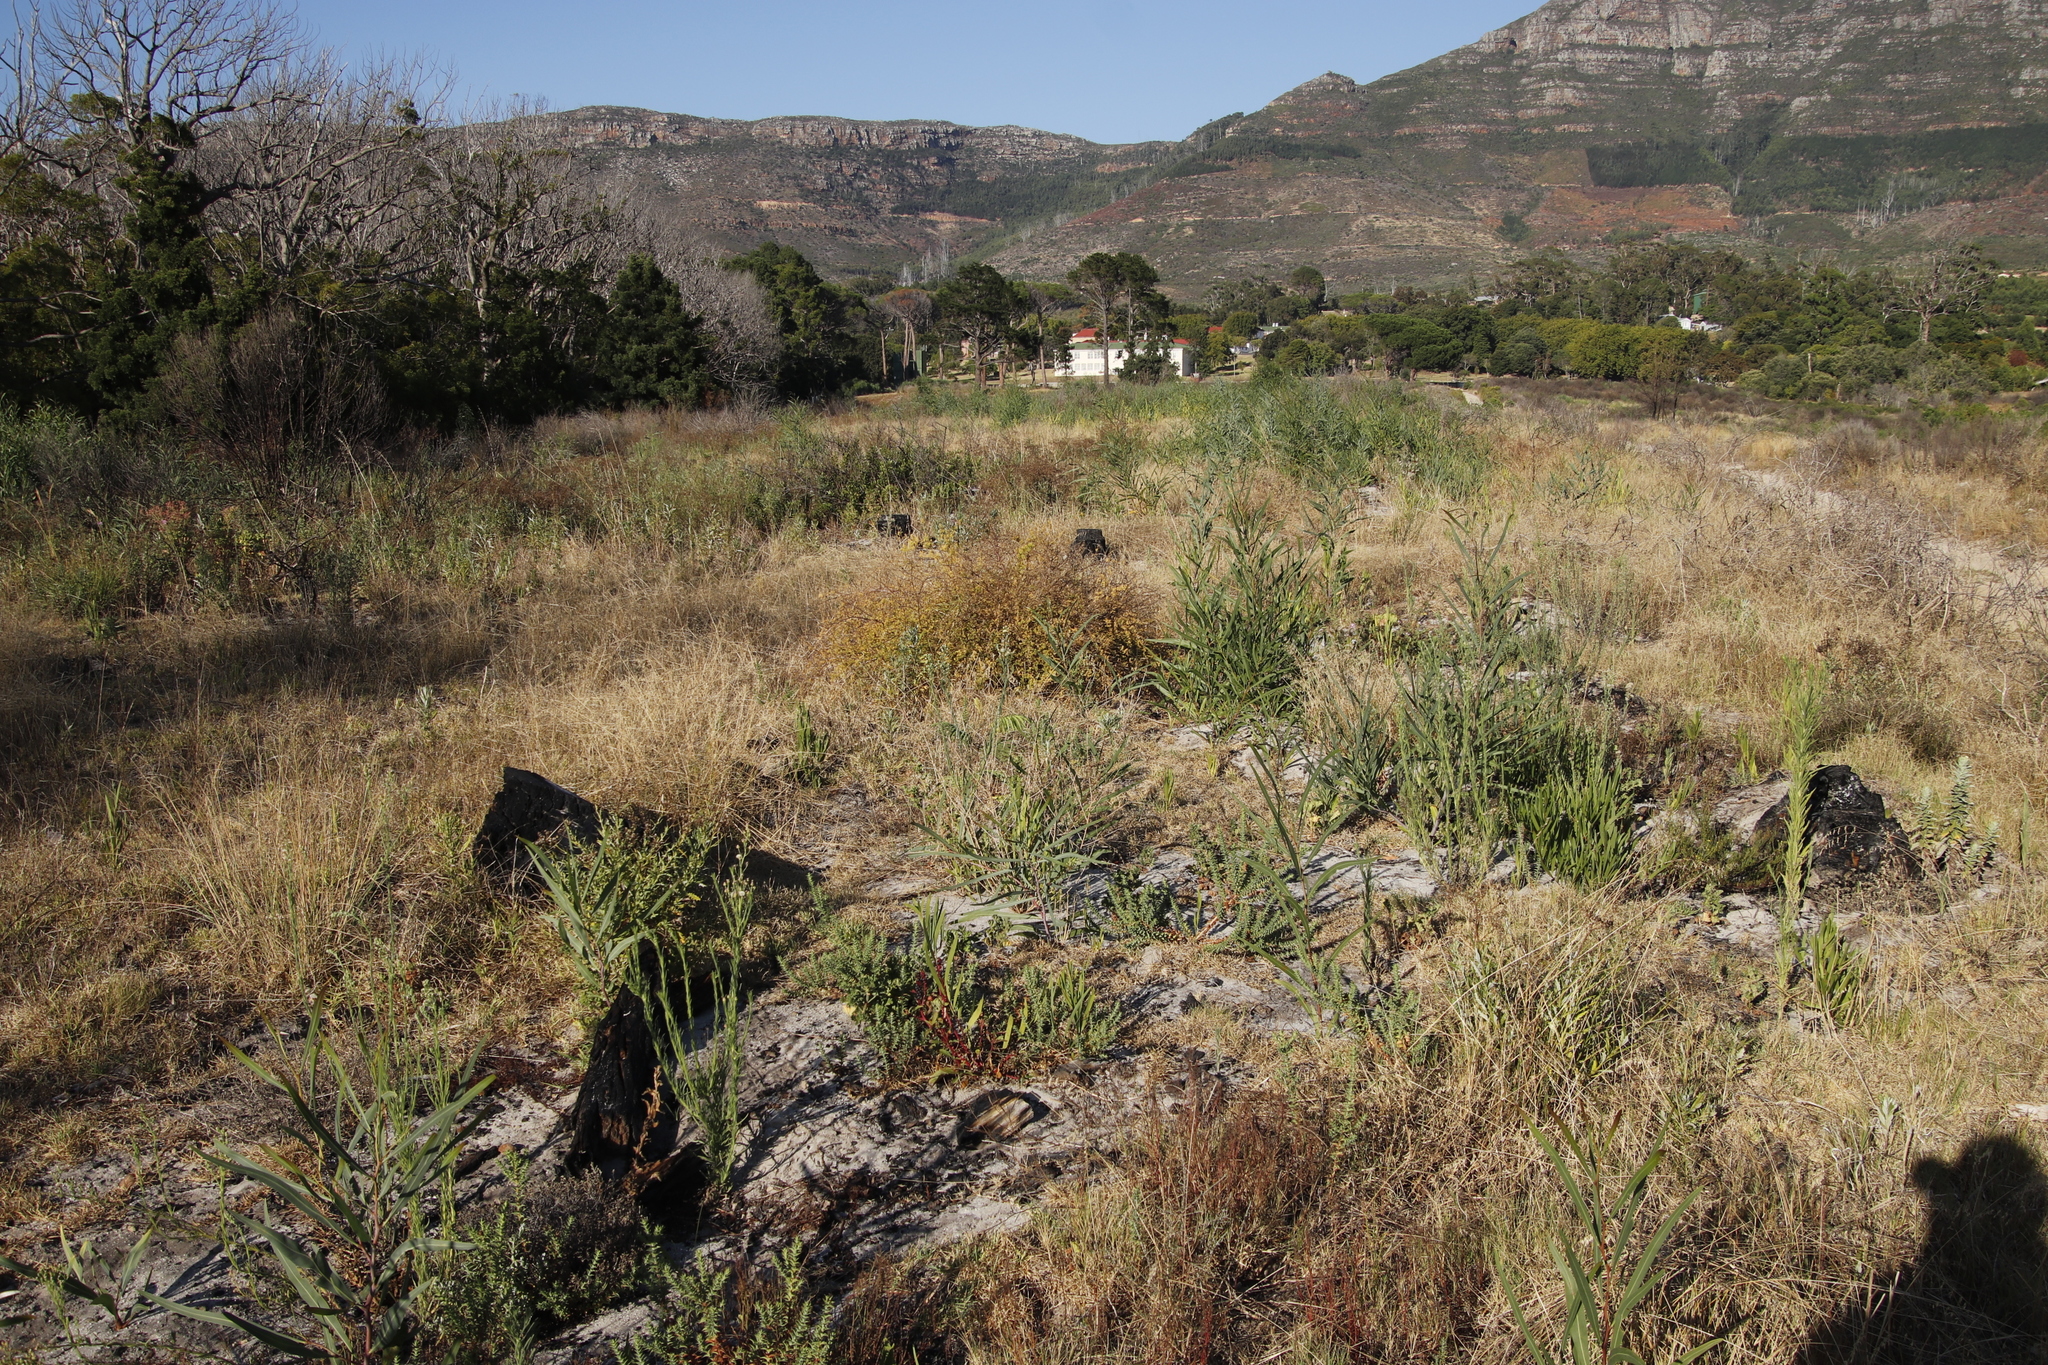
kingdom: Plantae
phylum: Tracheophyta
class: Magnoliopsida
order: Fabales
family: Fabaceae
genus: Acacia
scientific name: Acacia saligna
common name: Orange wattle
